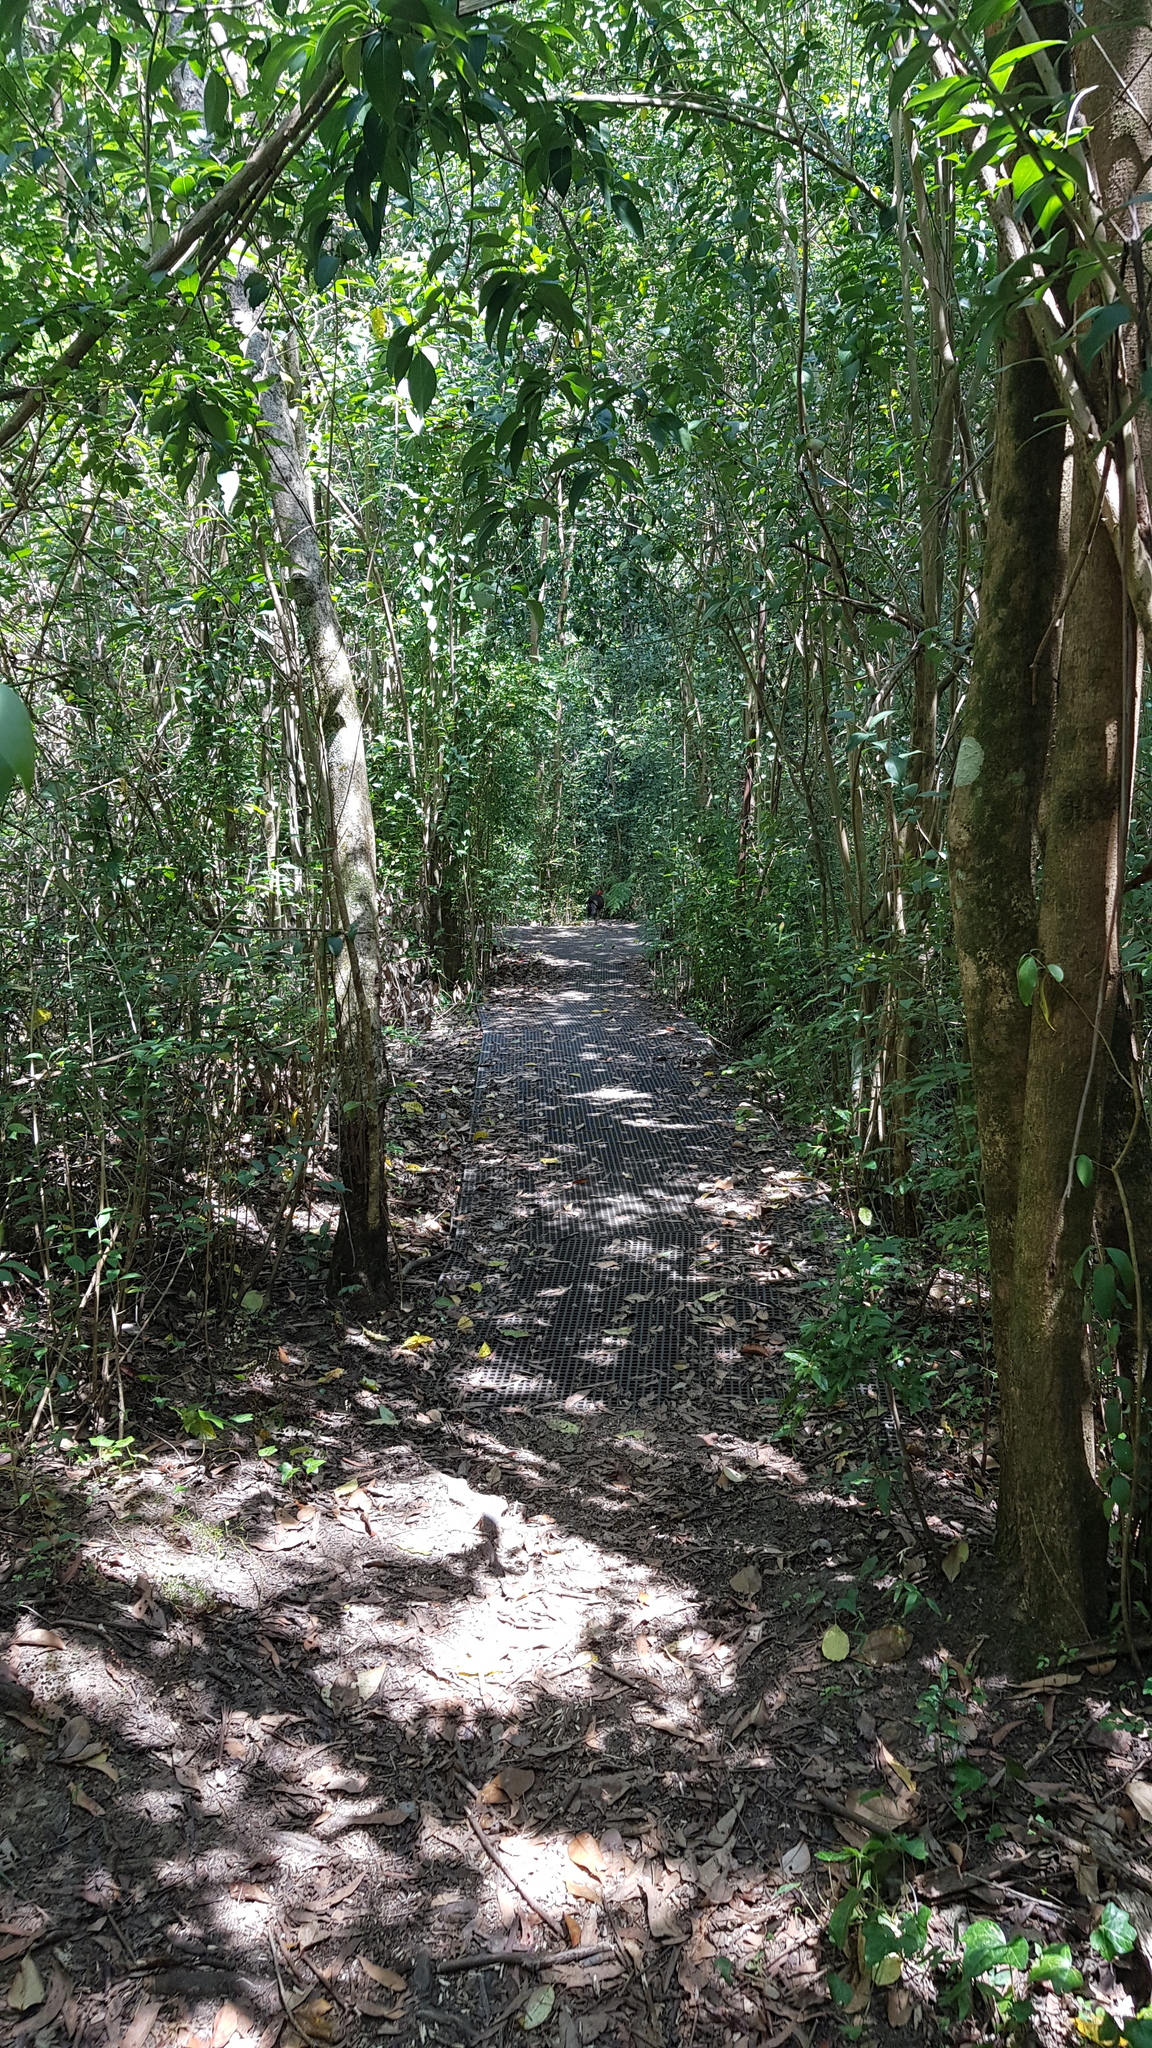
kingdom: Animalia
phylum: Chordata
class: Aves
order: Galliformes
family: Megapodiidae
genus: Alectura
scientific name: Alectura lathami
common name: Australian brushturkey
